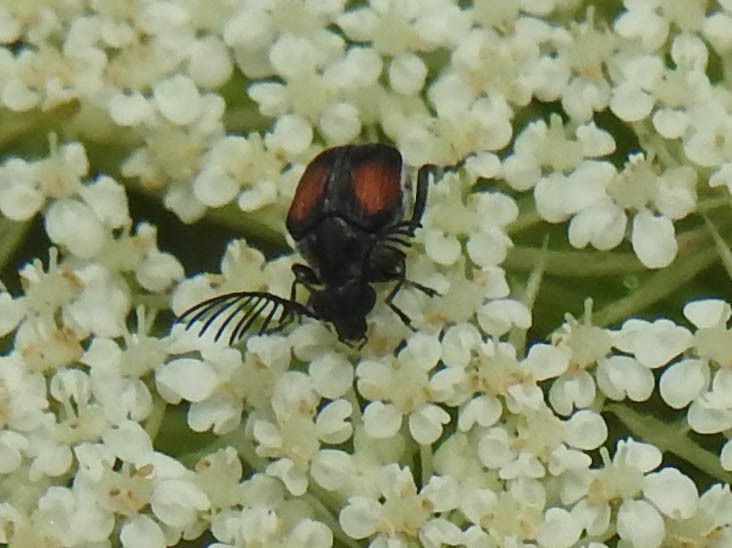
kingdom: Animalia
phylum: Arthropoda
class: Insecta
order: Coleoptera
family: Chrysomelidae
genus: Megacerus
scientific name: Megacerus discoidus
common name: Red megacerus
